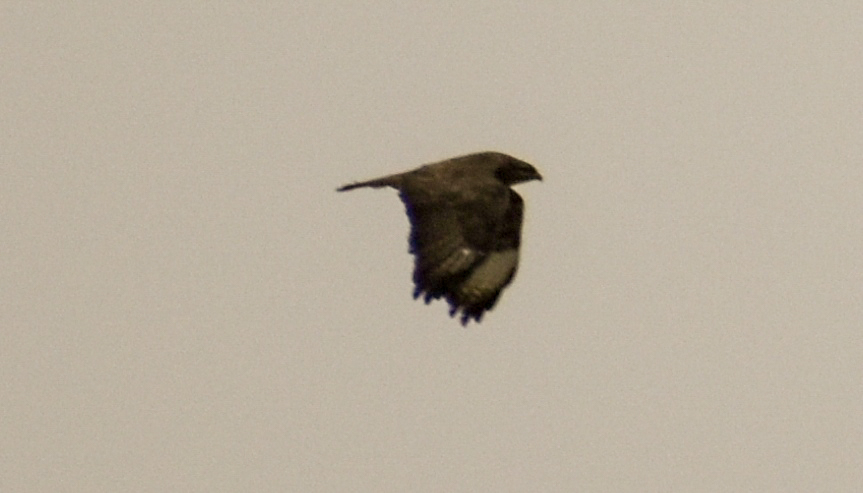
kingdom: Animalia
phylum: Chordata
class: Aves
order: Accipitriformes
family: Accipitridae
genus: Buteo
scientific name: Buteo buteo
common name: Common buzzard
